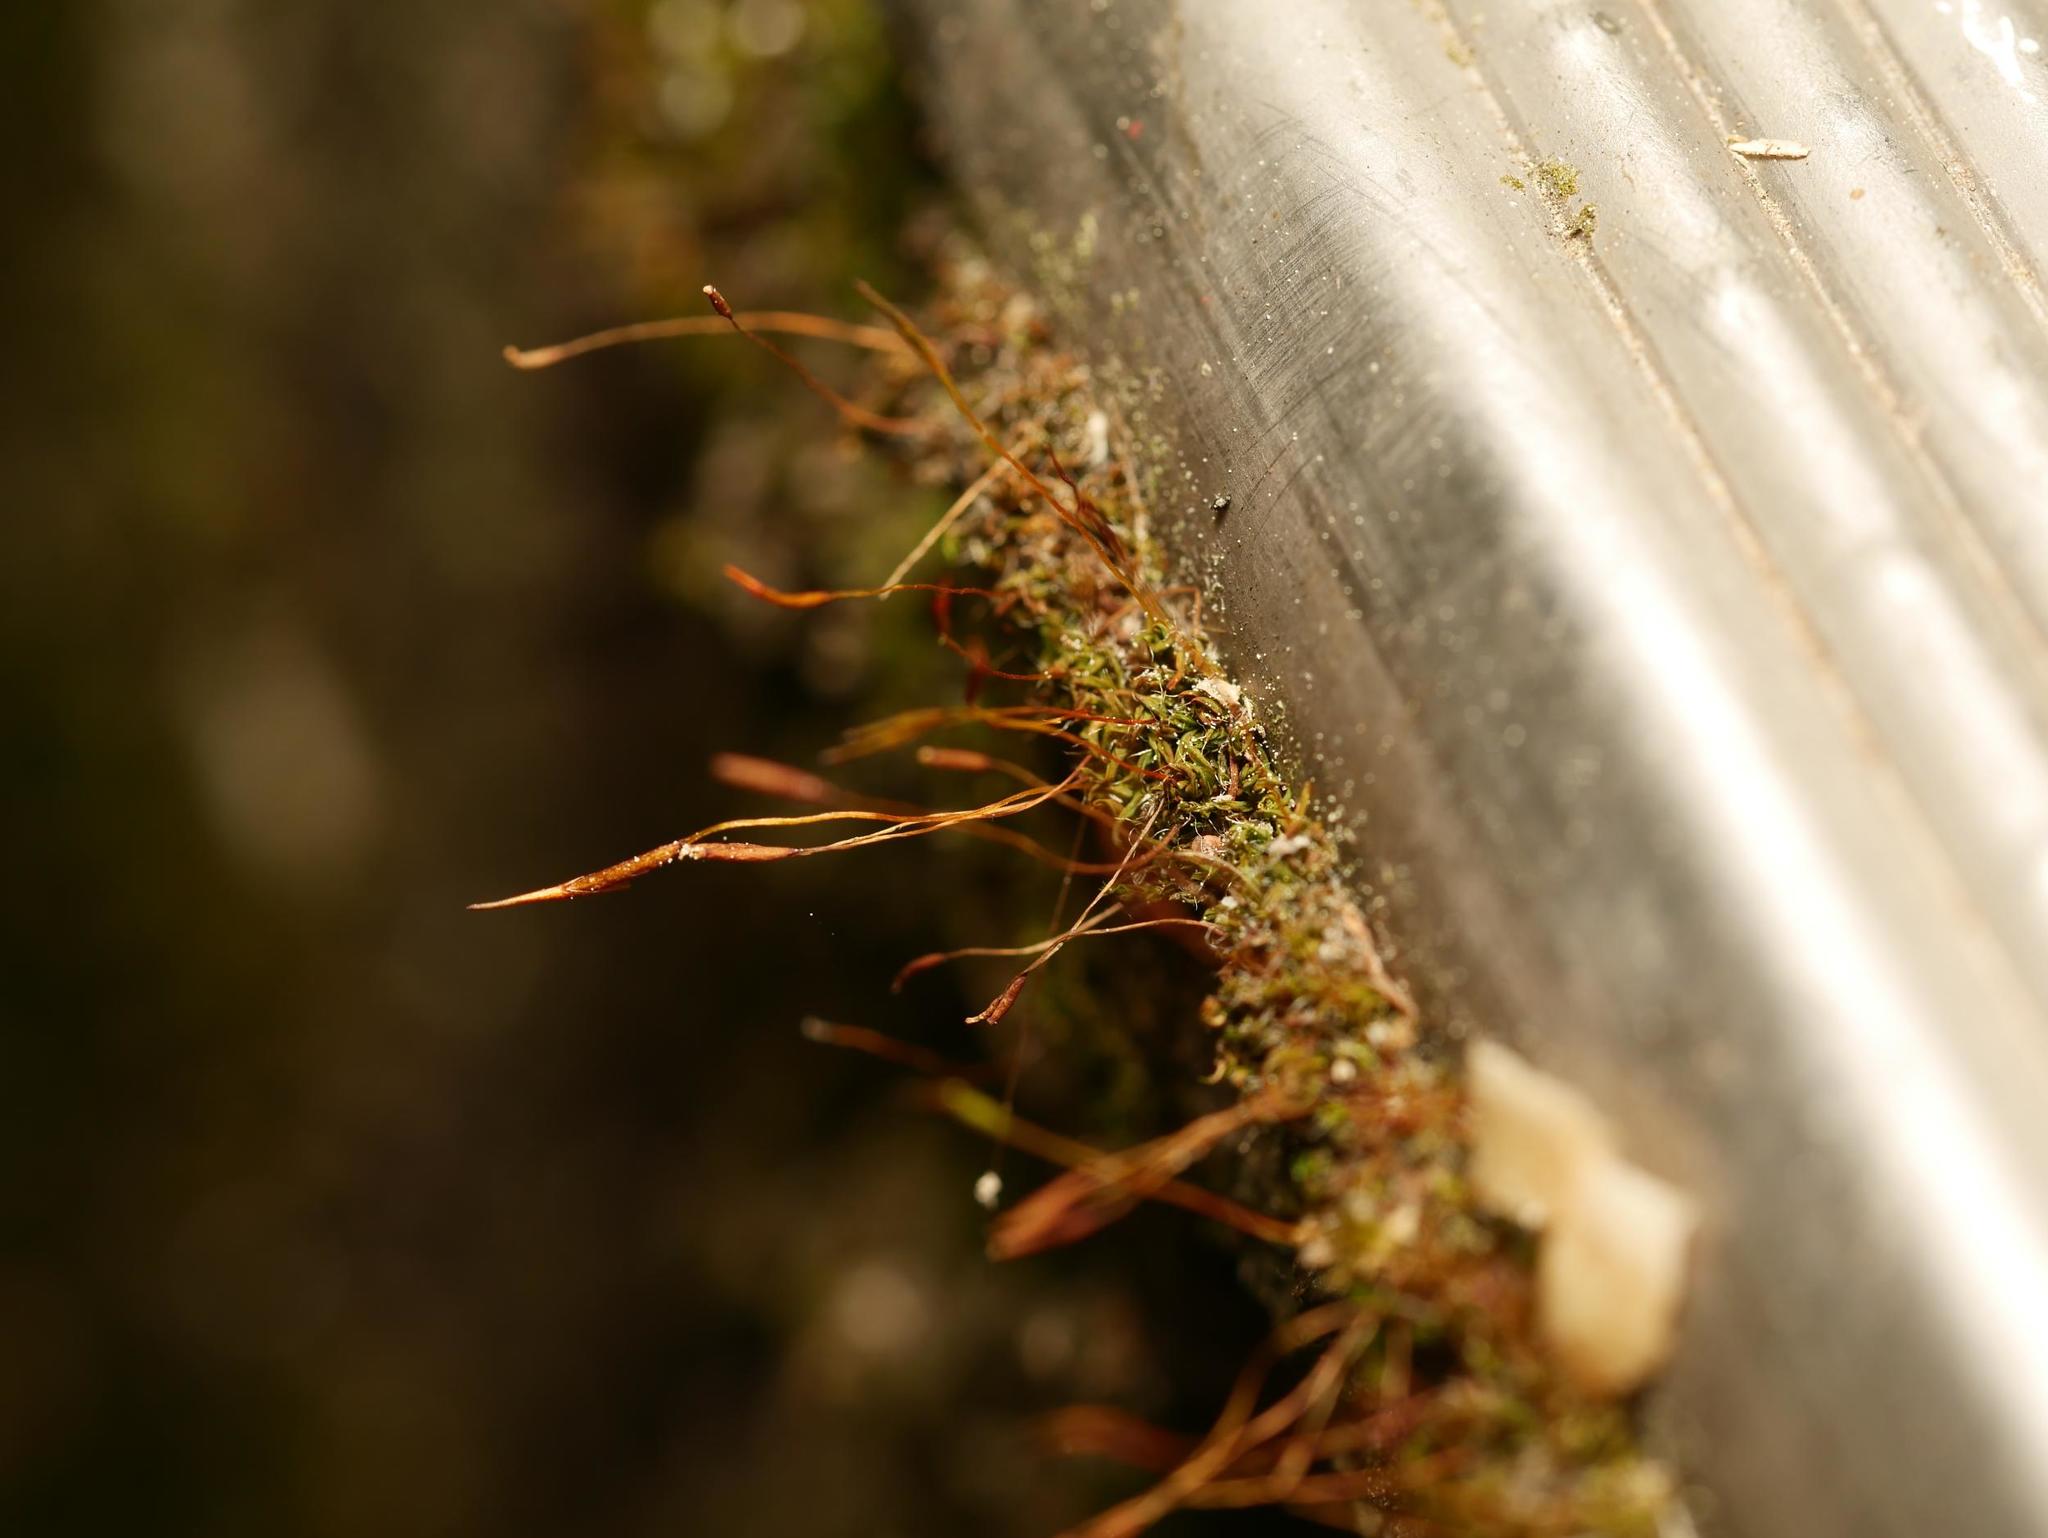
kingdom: Plantae
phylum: Bryophyta
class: Bryopsida
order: Pottiales
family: Pottiaceae
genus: Tortula
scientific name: Tortula muralis
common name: Wall screw-moss
